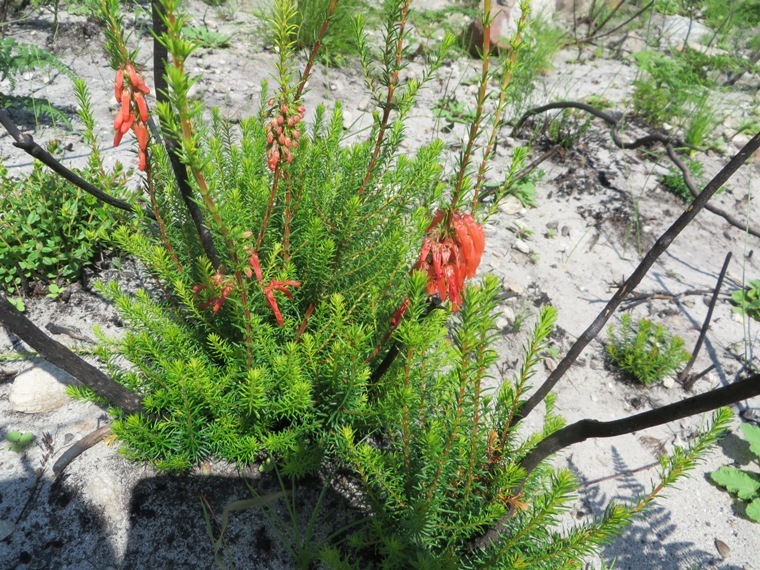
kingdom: Plantae
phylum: Tracheophyta
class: Magnoliopsida
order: Ericales
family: Ericaceae
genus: Erica
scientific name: Erica mammosa
